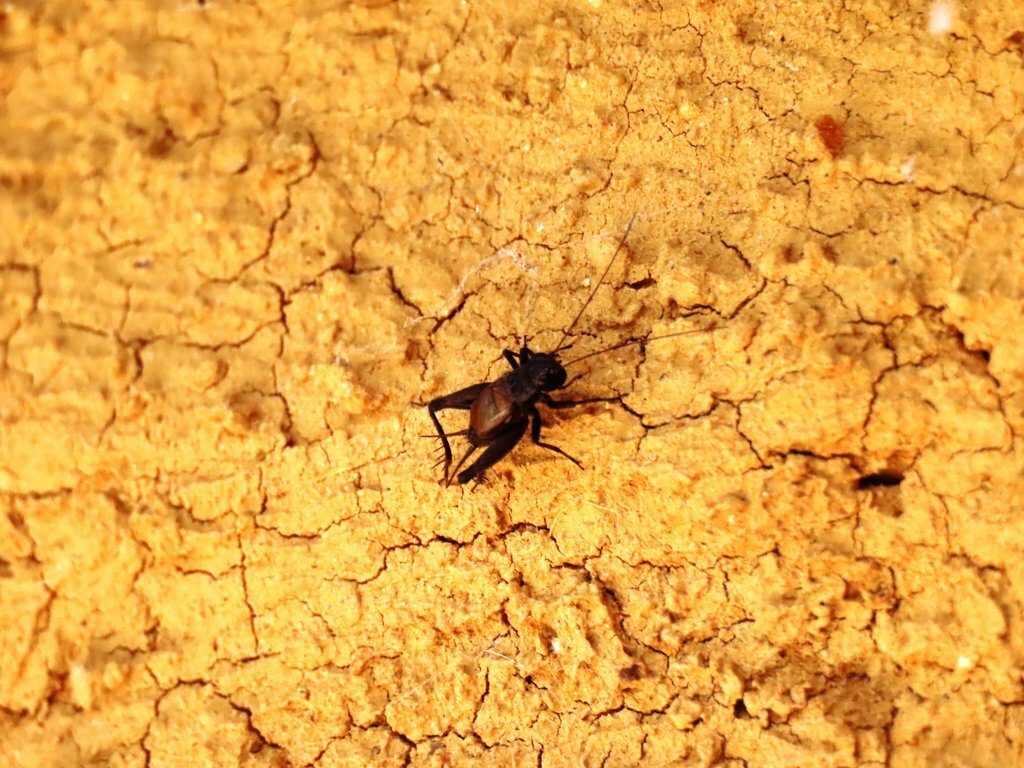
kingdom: Animalia
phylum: Arthropoda
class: Insecta
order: Orthoptera
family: Gryllidae
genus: Teleogryllus
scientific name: Teleogryllus commodus
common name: Black field cricket
